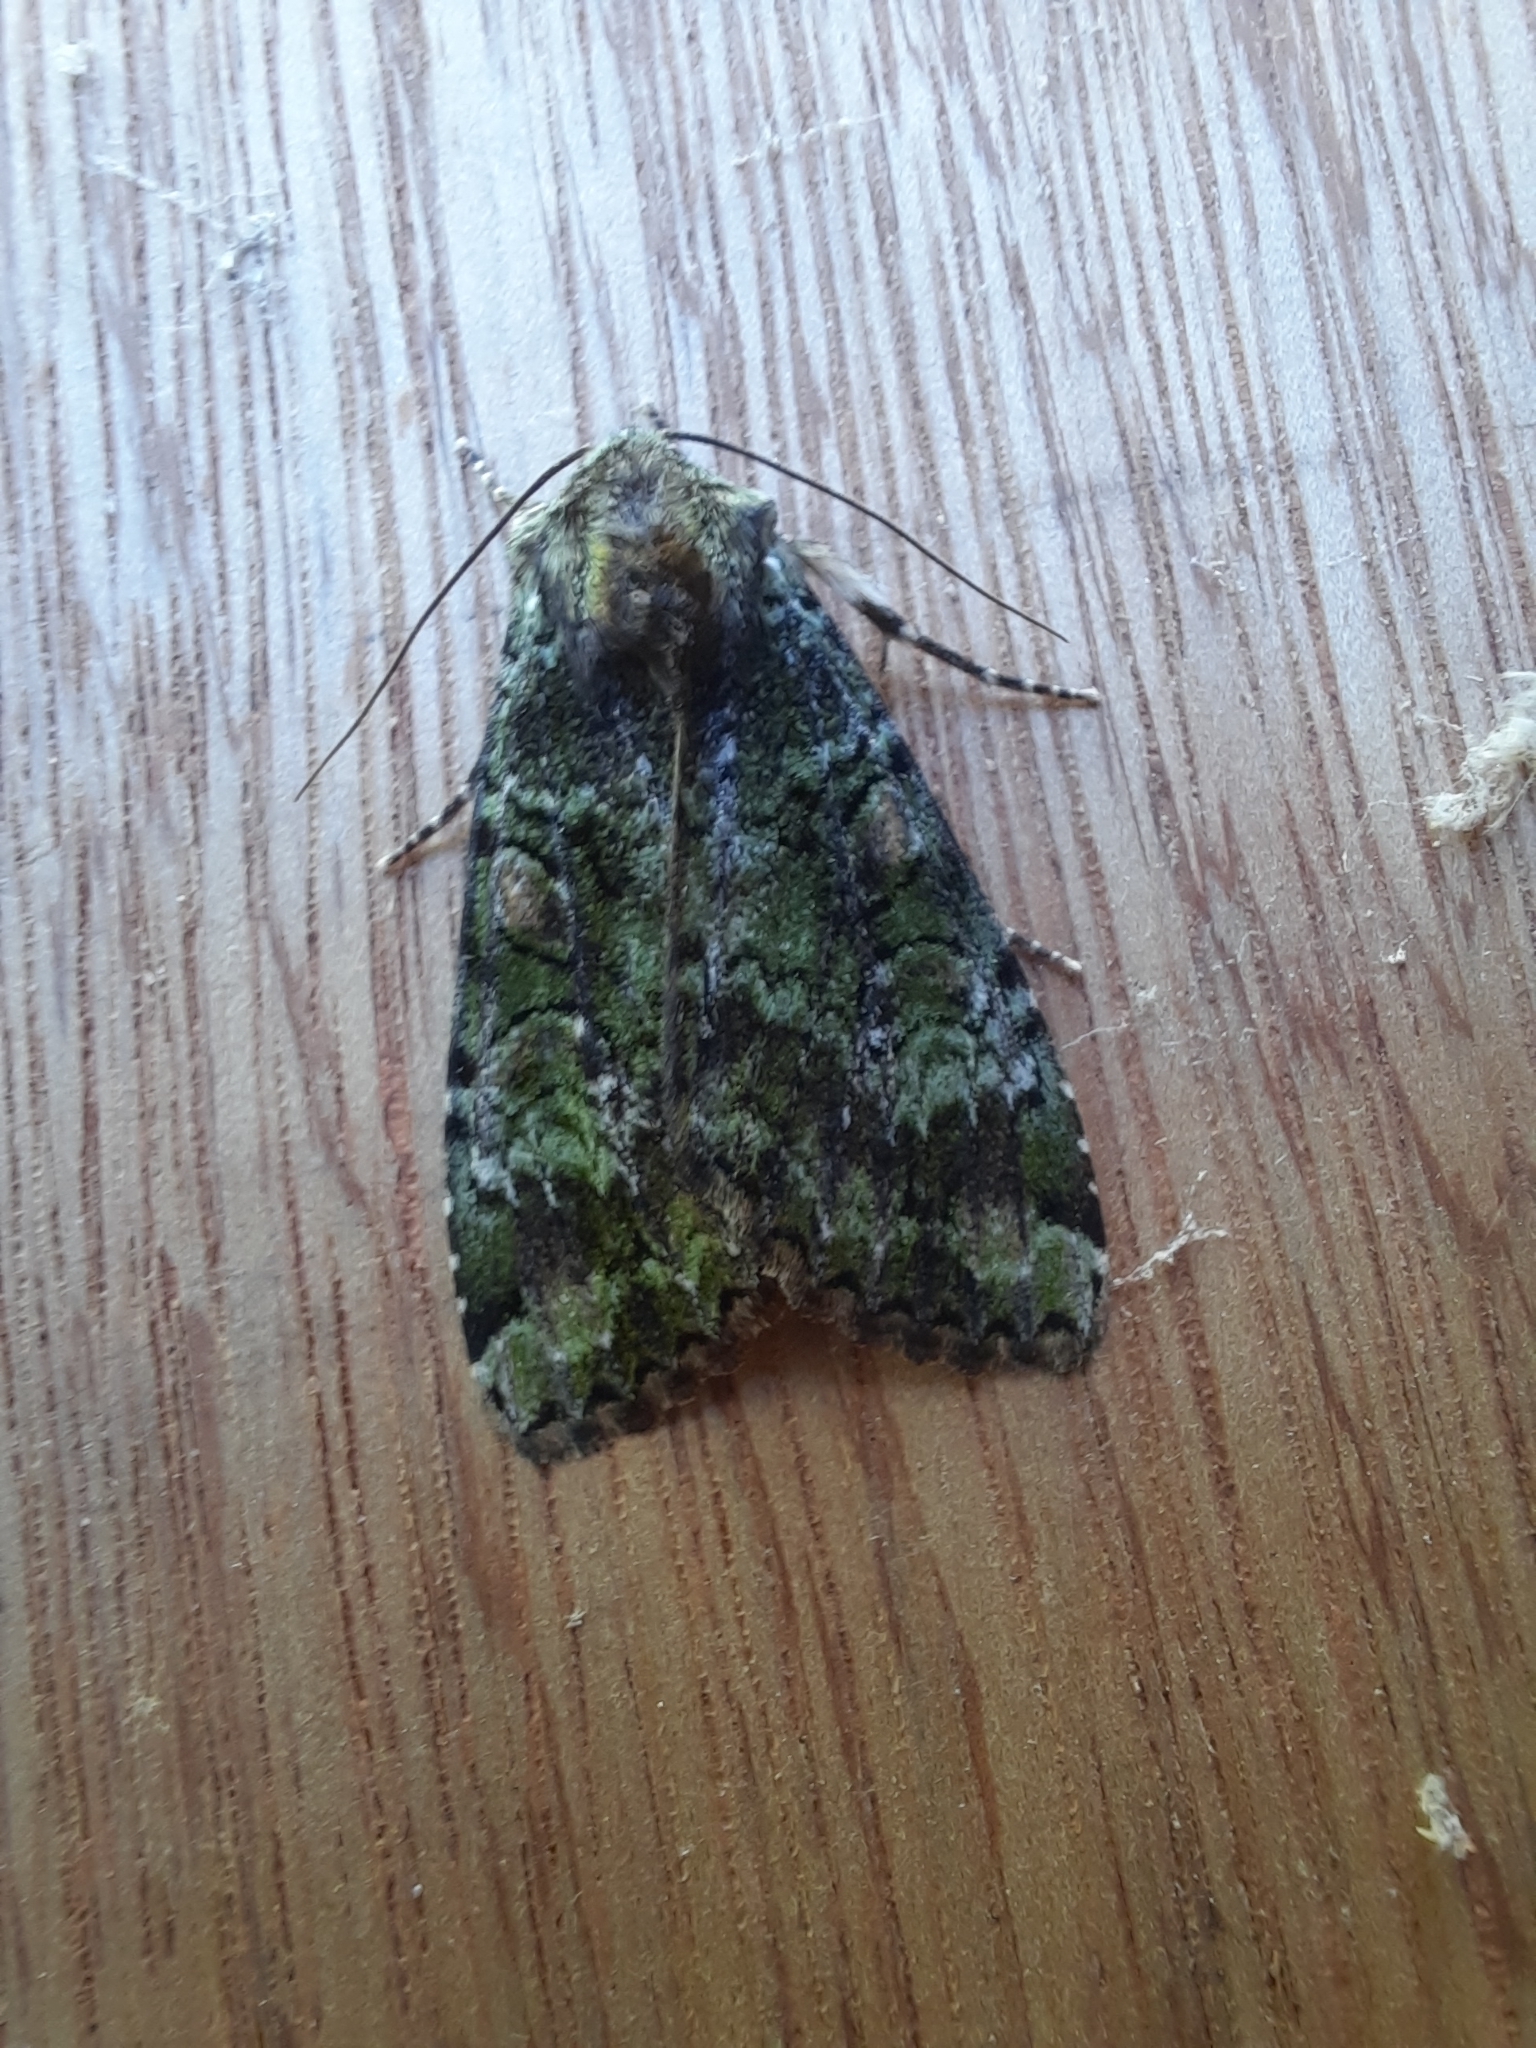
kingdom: Animalia
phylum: Arthropoda
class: Insecta
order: Lepidoptera
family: Noctuidae
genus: Anaplectoides
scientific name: Anaplectoides prasina
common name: Green arches
